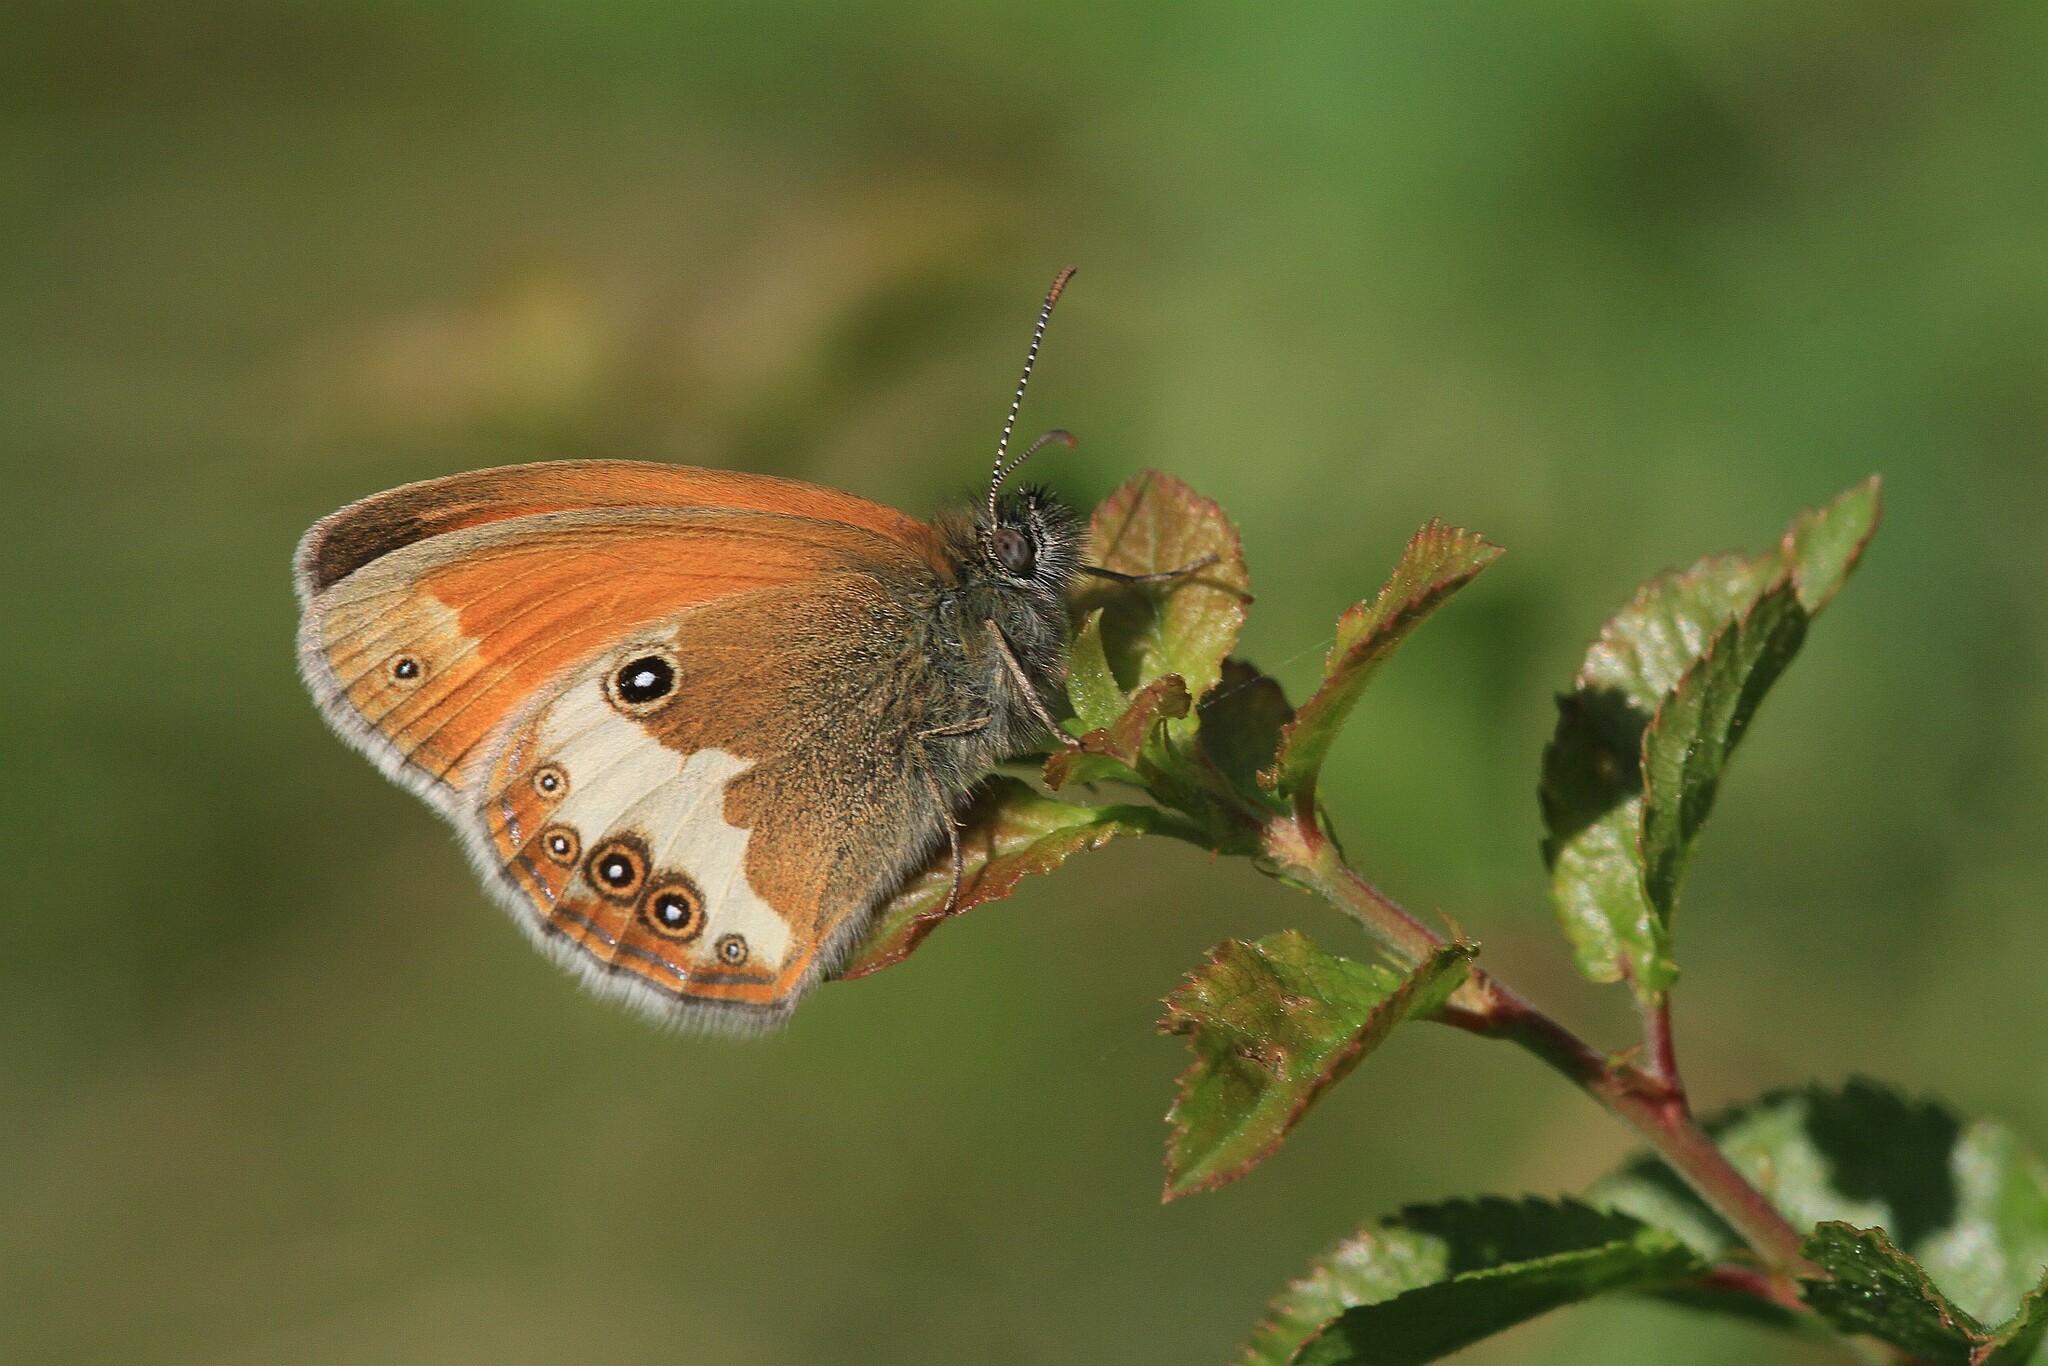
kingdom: Animalia
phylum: Arthropoda
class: Insecta
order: Lepidoptera
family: Nymphalidae
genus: Coenonympha
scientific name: Coenonympha arcania
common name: Pearly heath
